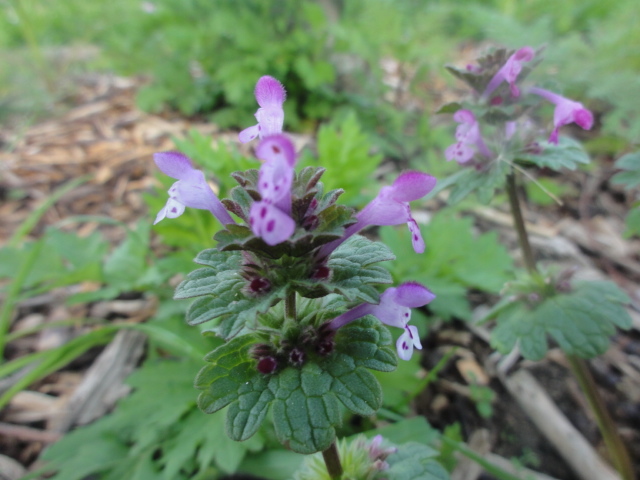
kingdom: Plantae
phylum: Tracheophyta
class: Magnoliopsida
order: Lamiales
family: Lamiaceae
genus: Lamium
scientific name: Lamium amplexicaule
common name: Henbit dead-nettle
